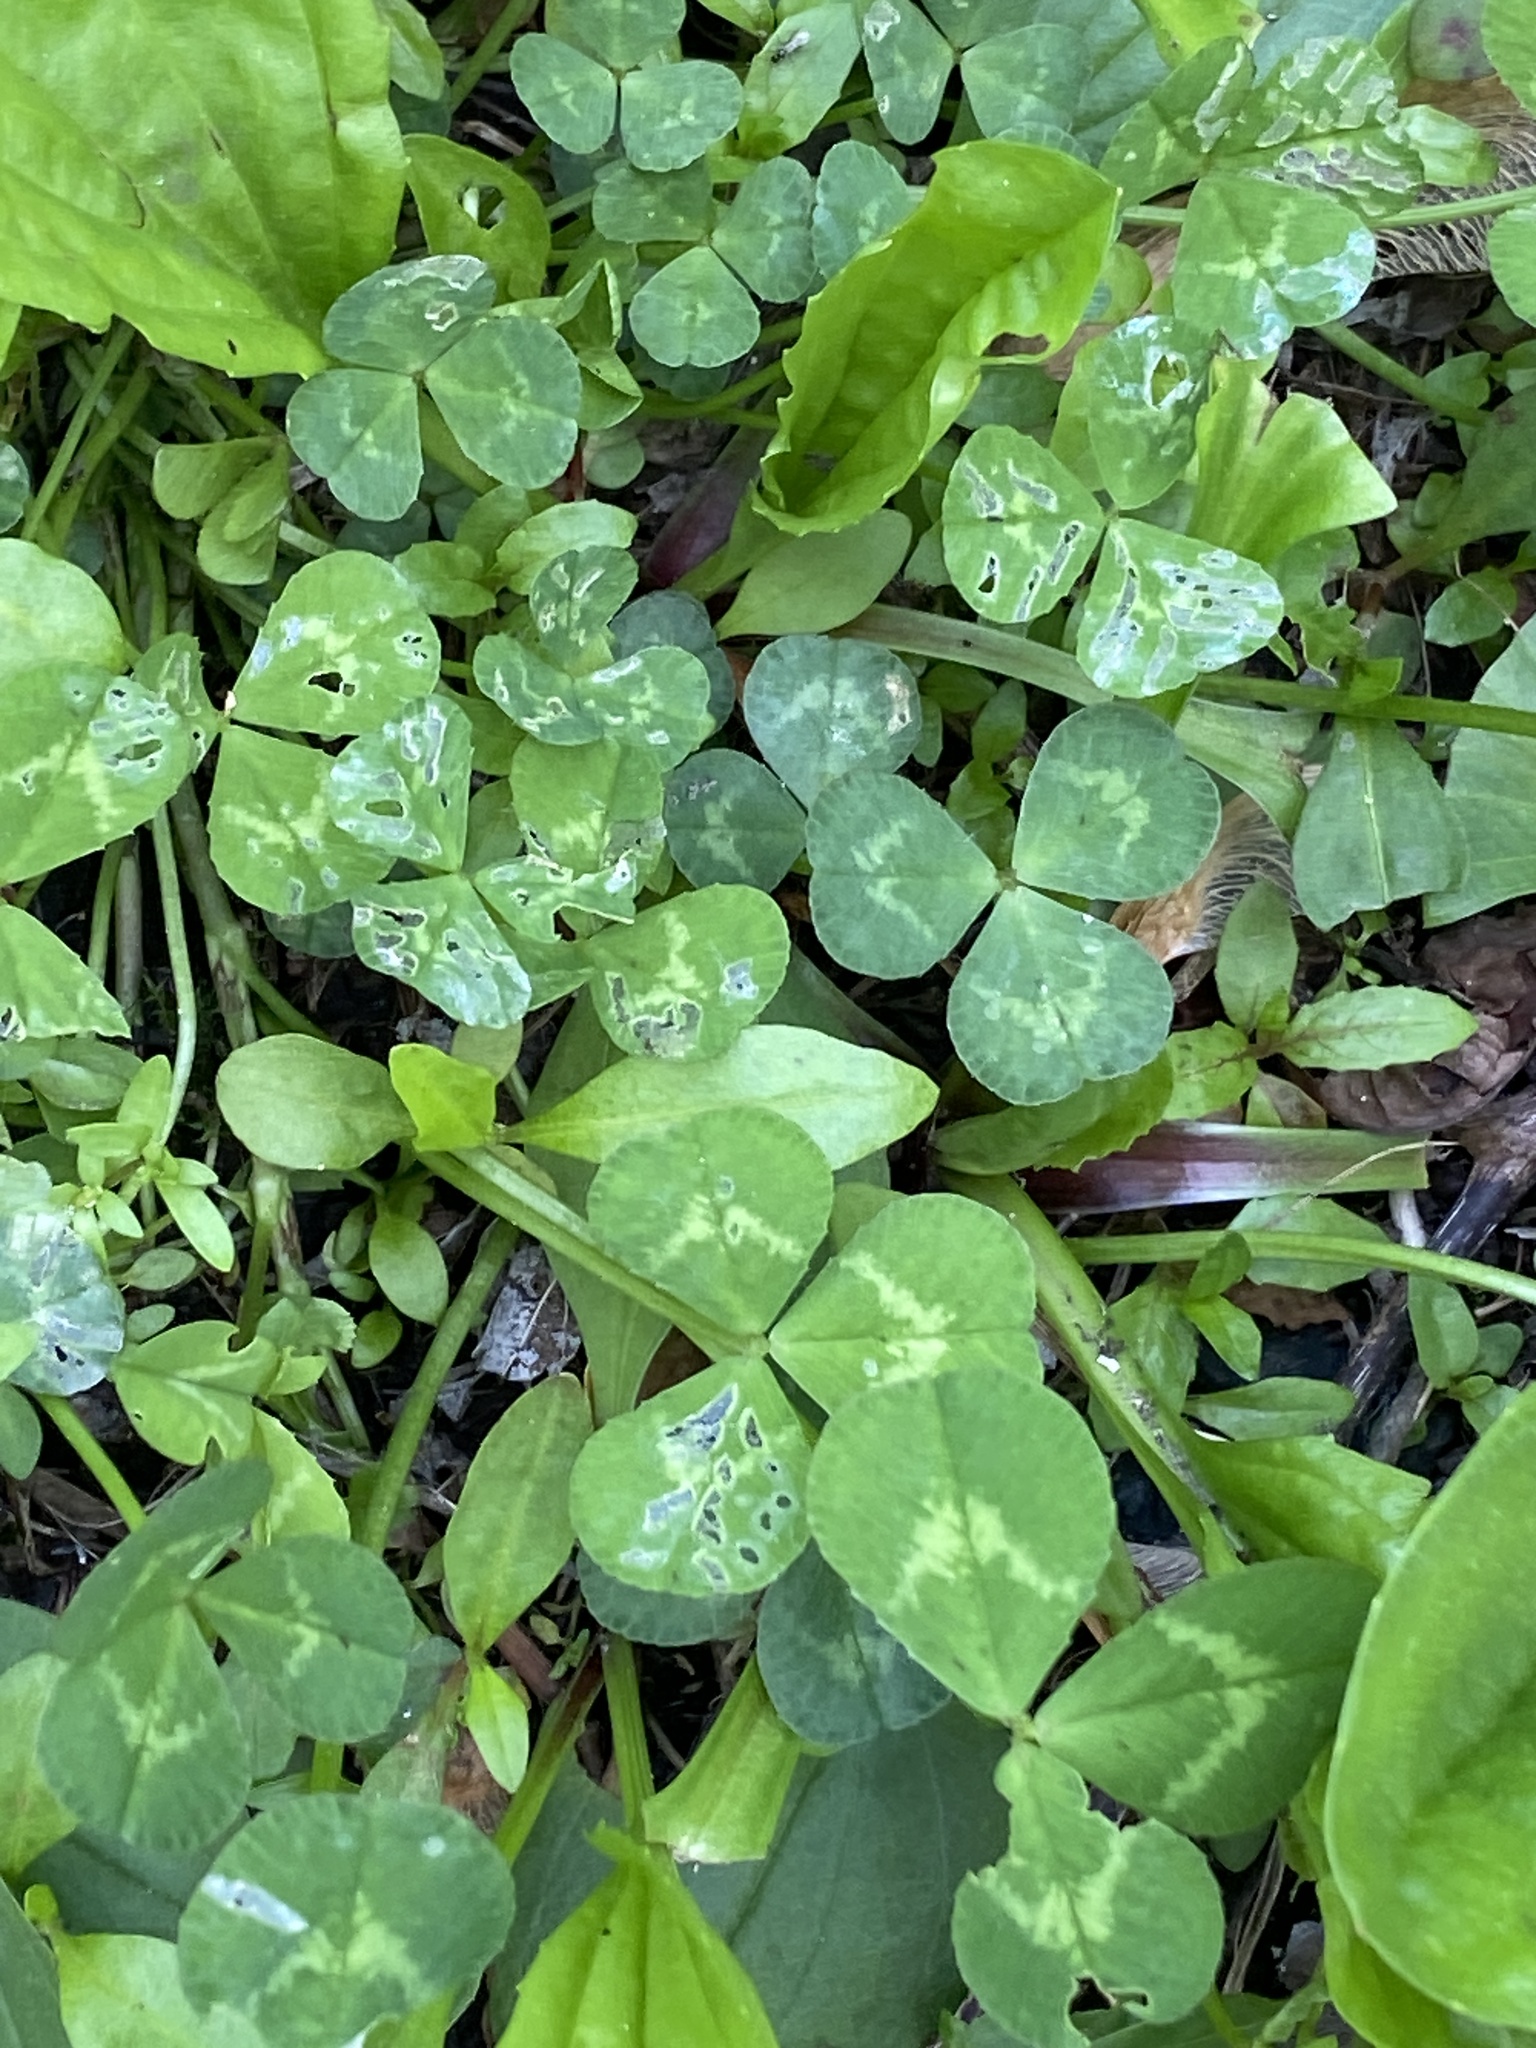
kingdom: Plantae
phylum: Tracheophyta
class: Magnoliopsida
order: Fabales
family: Fabaceae
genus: Trifolium
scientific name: Trifolium repens
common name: White clover
